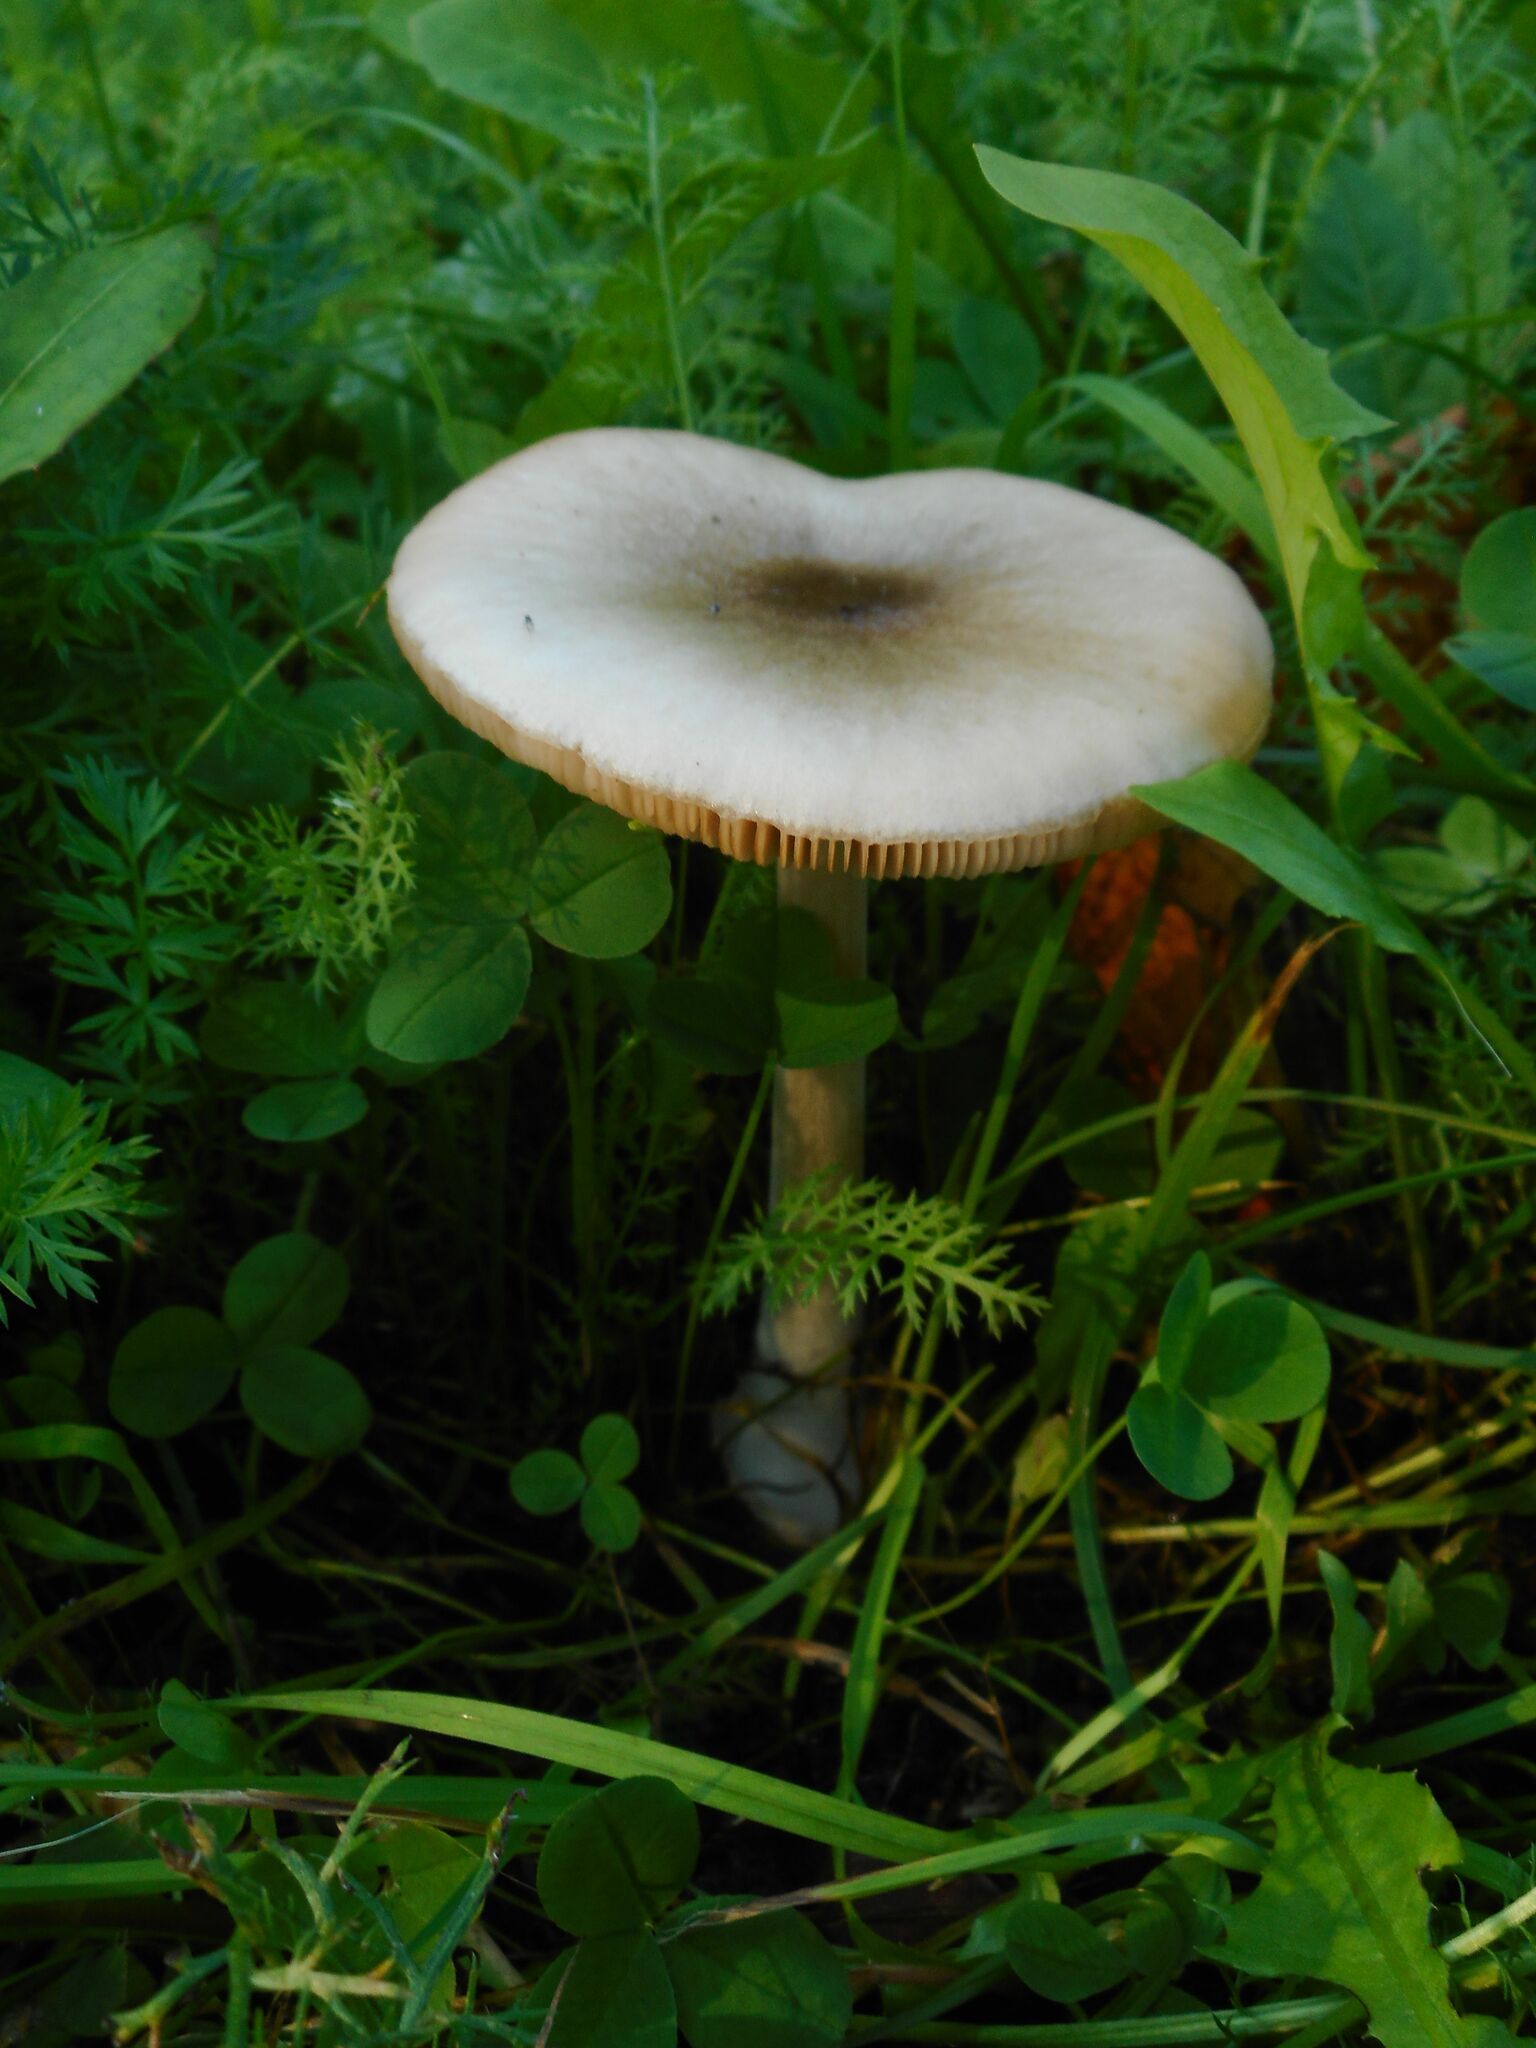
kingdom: Fungi
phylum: Basidiomycota
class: Agaricomycetes
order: Agaricales
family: Pluteaceae
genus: Volvopluteus
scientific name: Volvopluteus gloiocephalus
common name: Stubble rosegill
